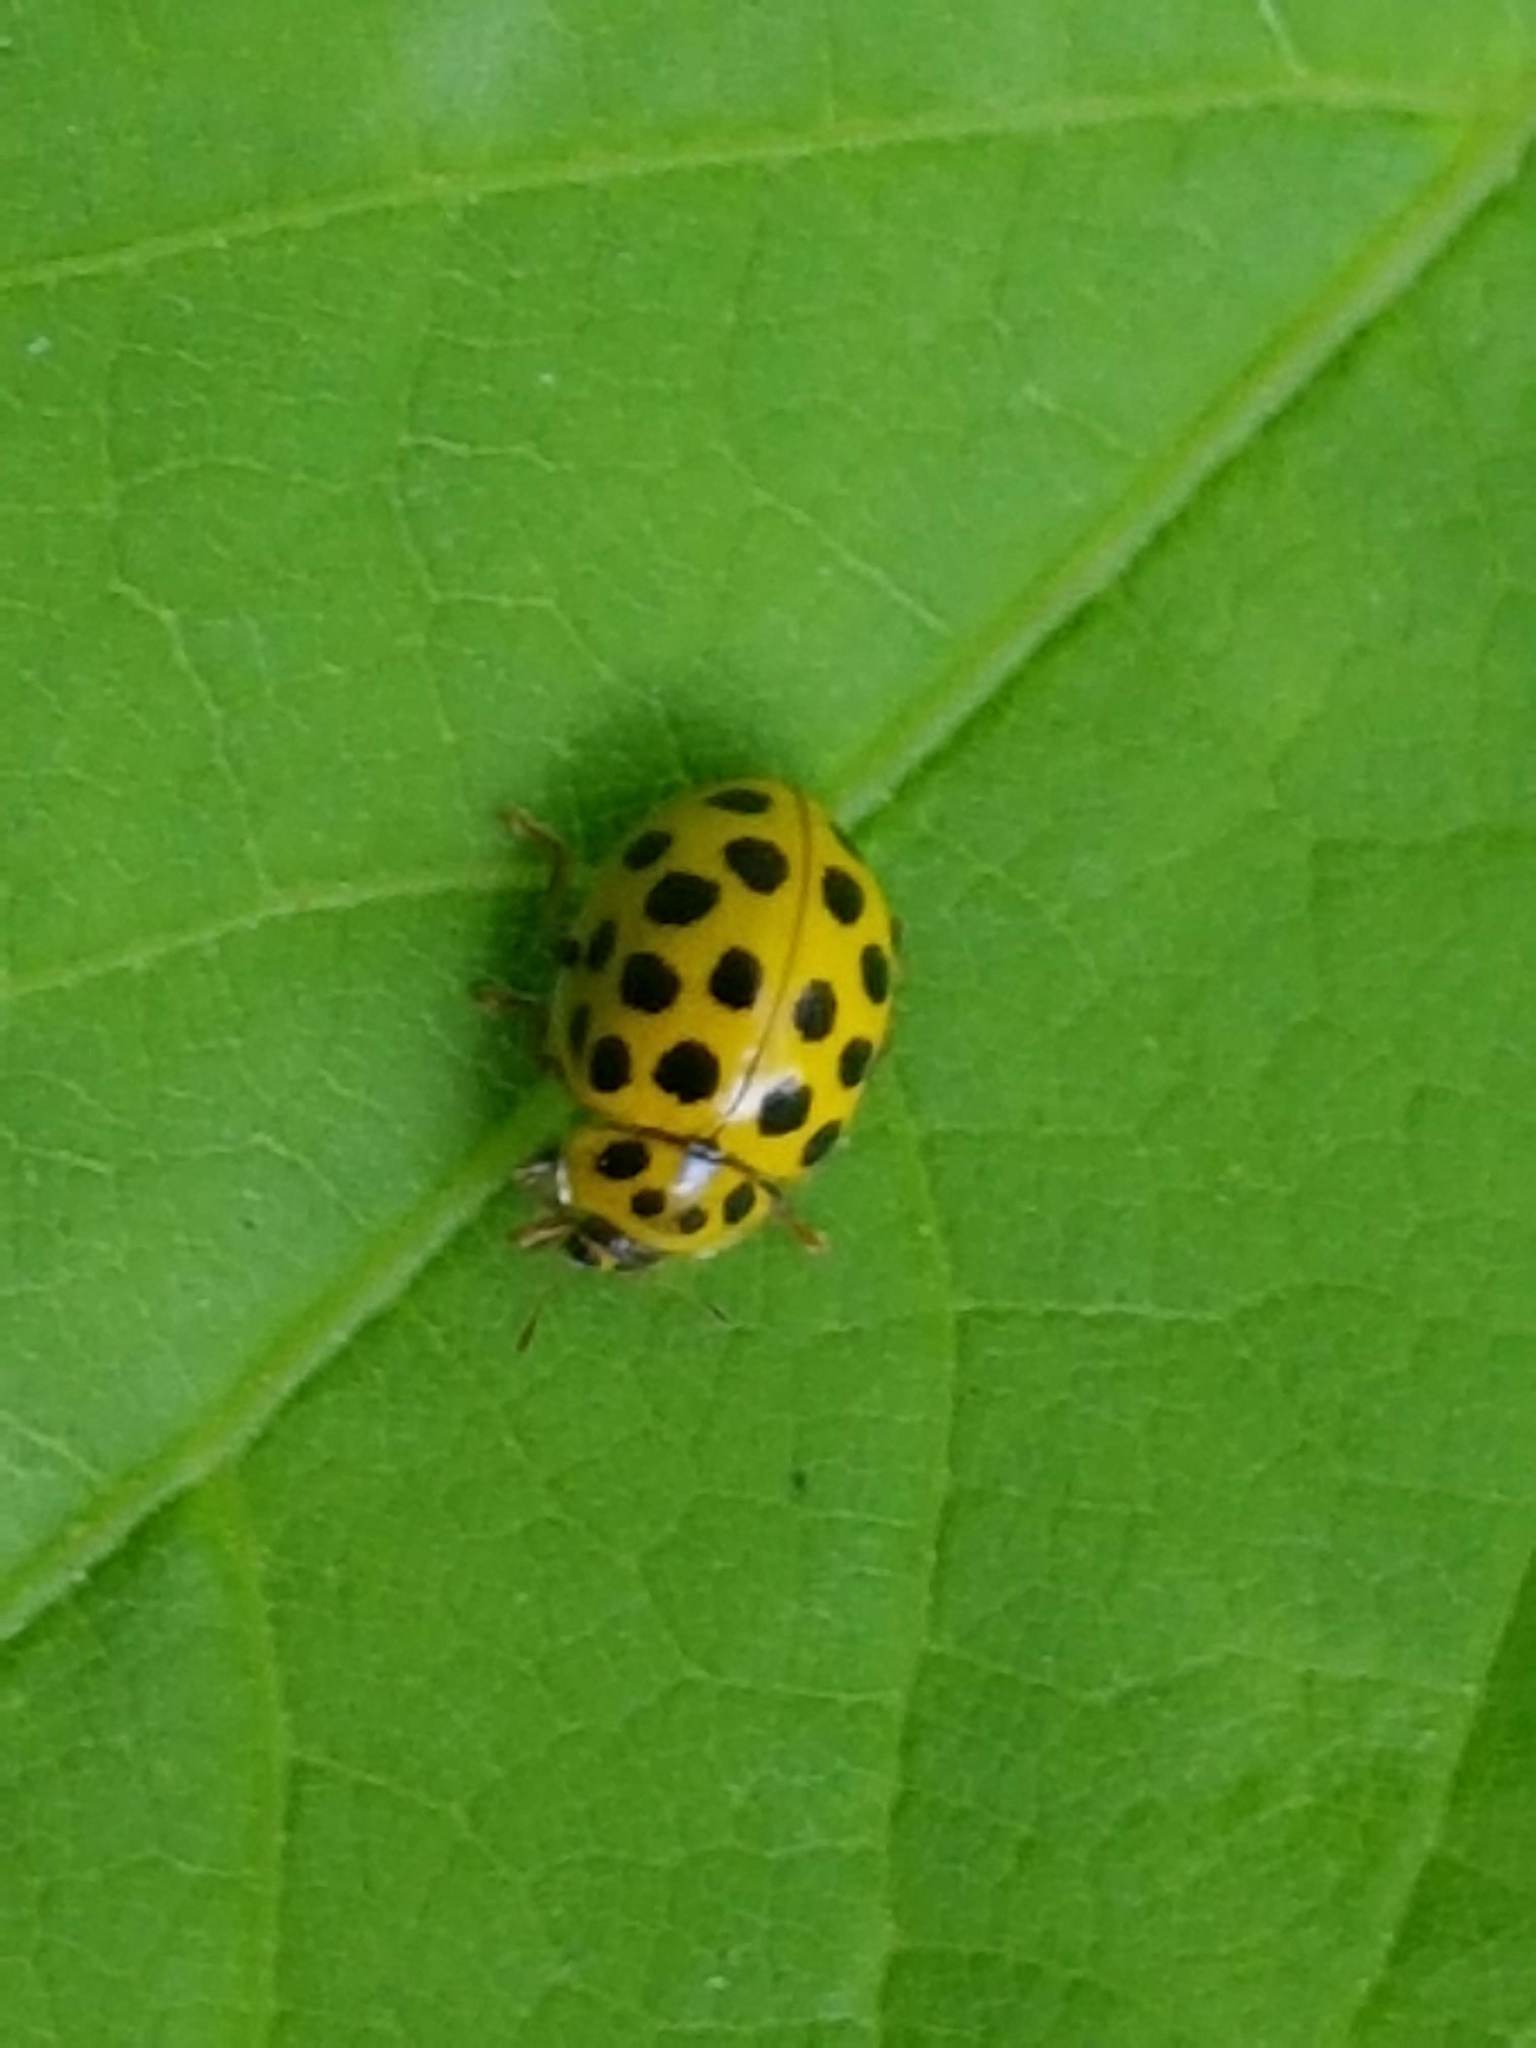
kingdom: Animalia
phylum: Arthropoda
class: Insecta
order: Coleoptera
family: Coccinellidae
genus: Psyllobora
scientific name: Psyllobora vigintiduopunctata
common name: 22-spot ladybird
